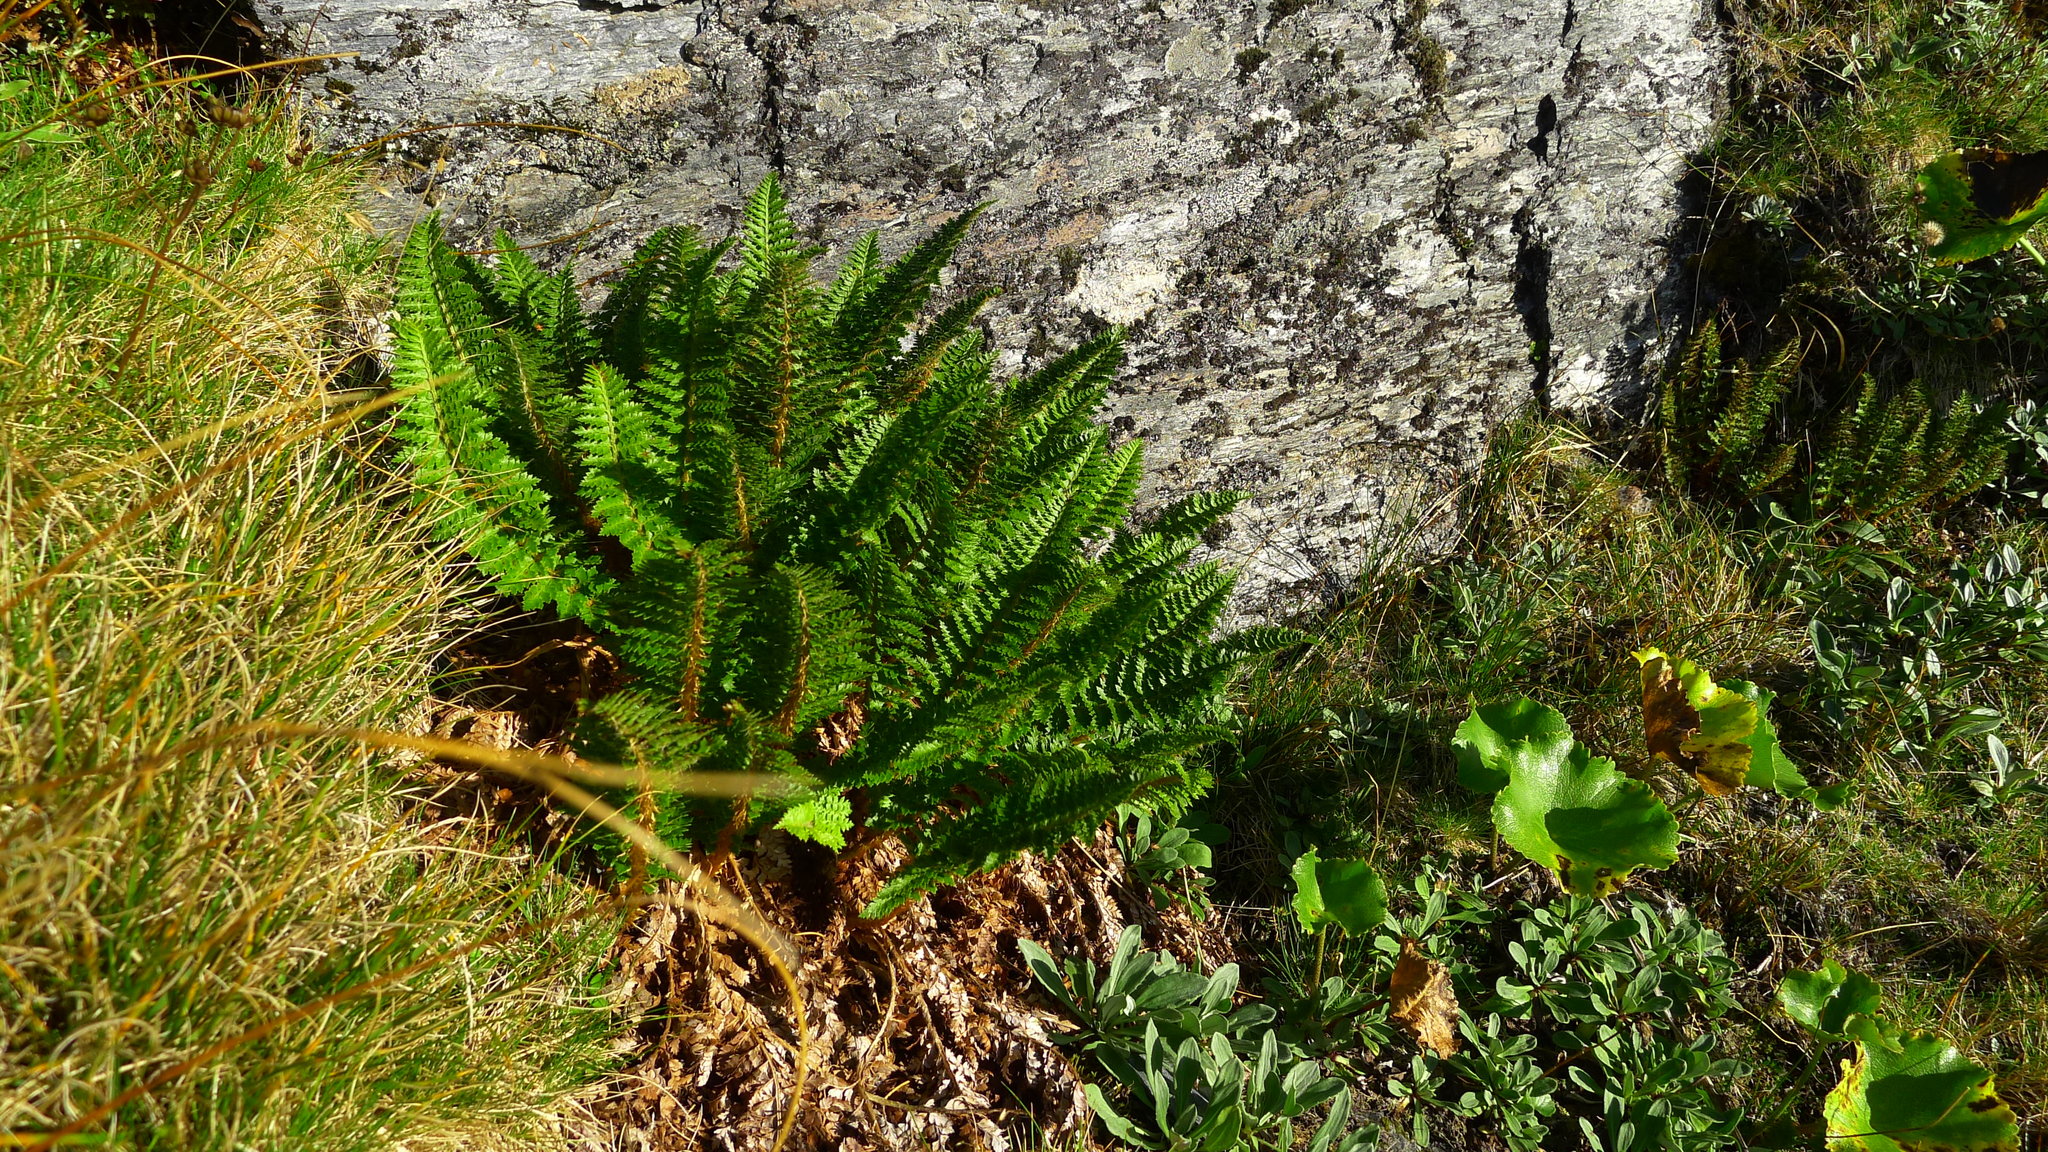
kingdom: Plantae
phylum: Tracheophyta
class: Polypodiopsida
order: Polypodiales
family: Dryopteridaceae
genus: Polystichum
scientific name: Polystichum cystostegia
